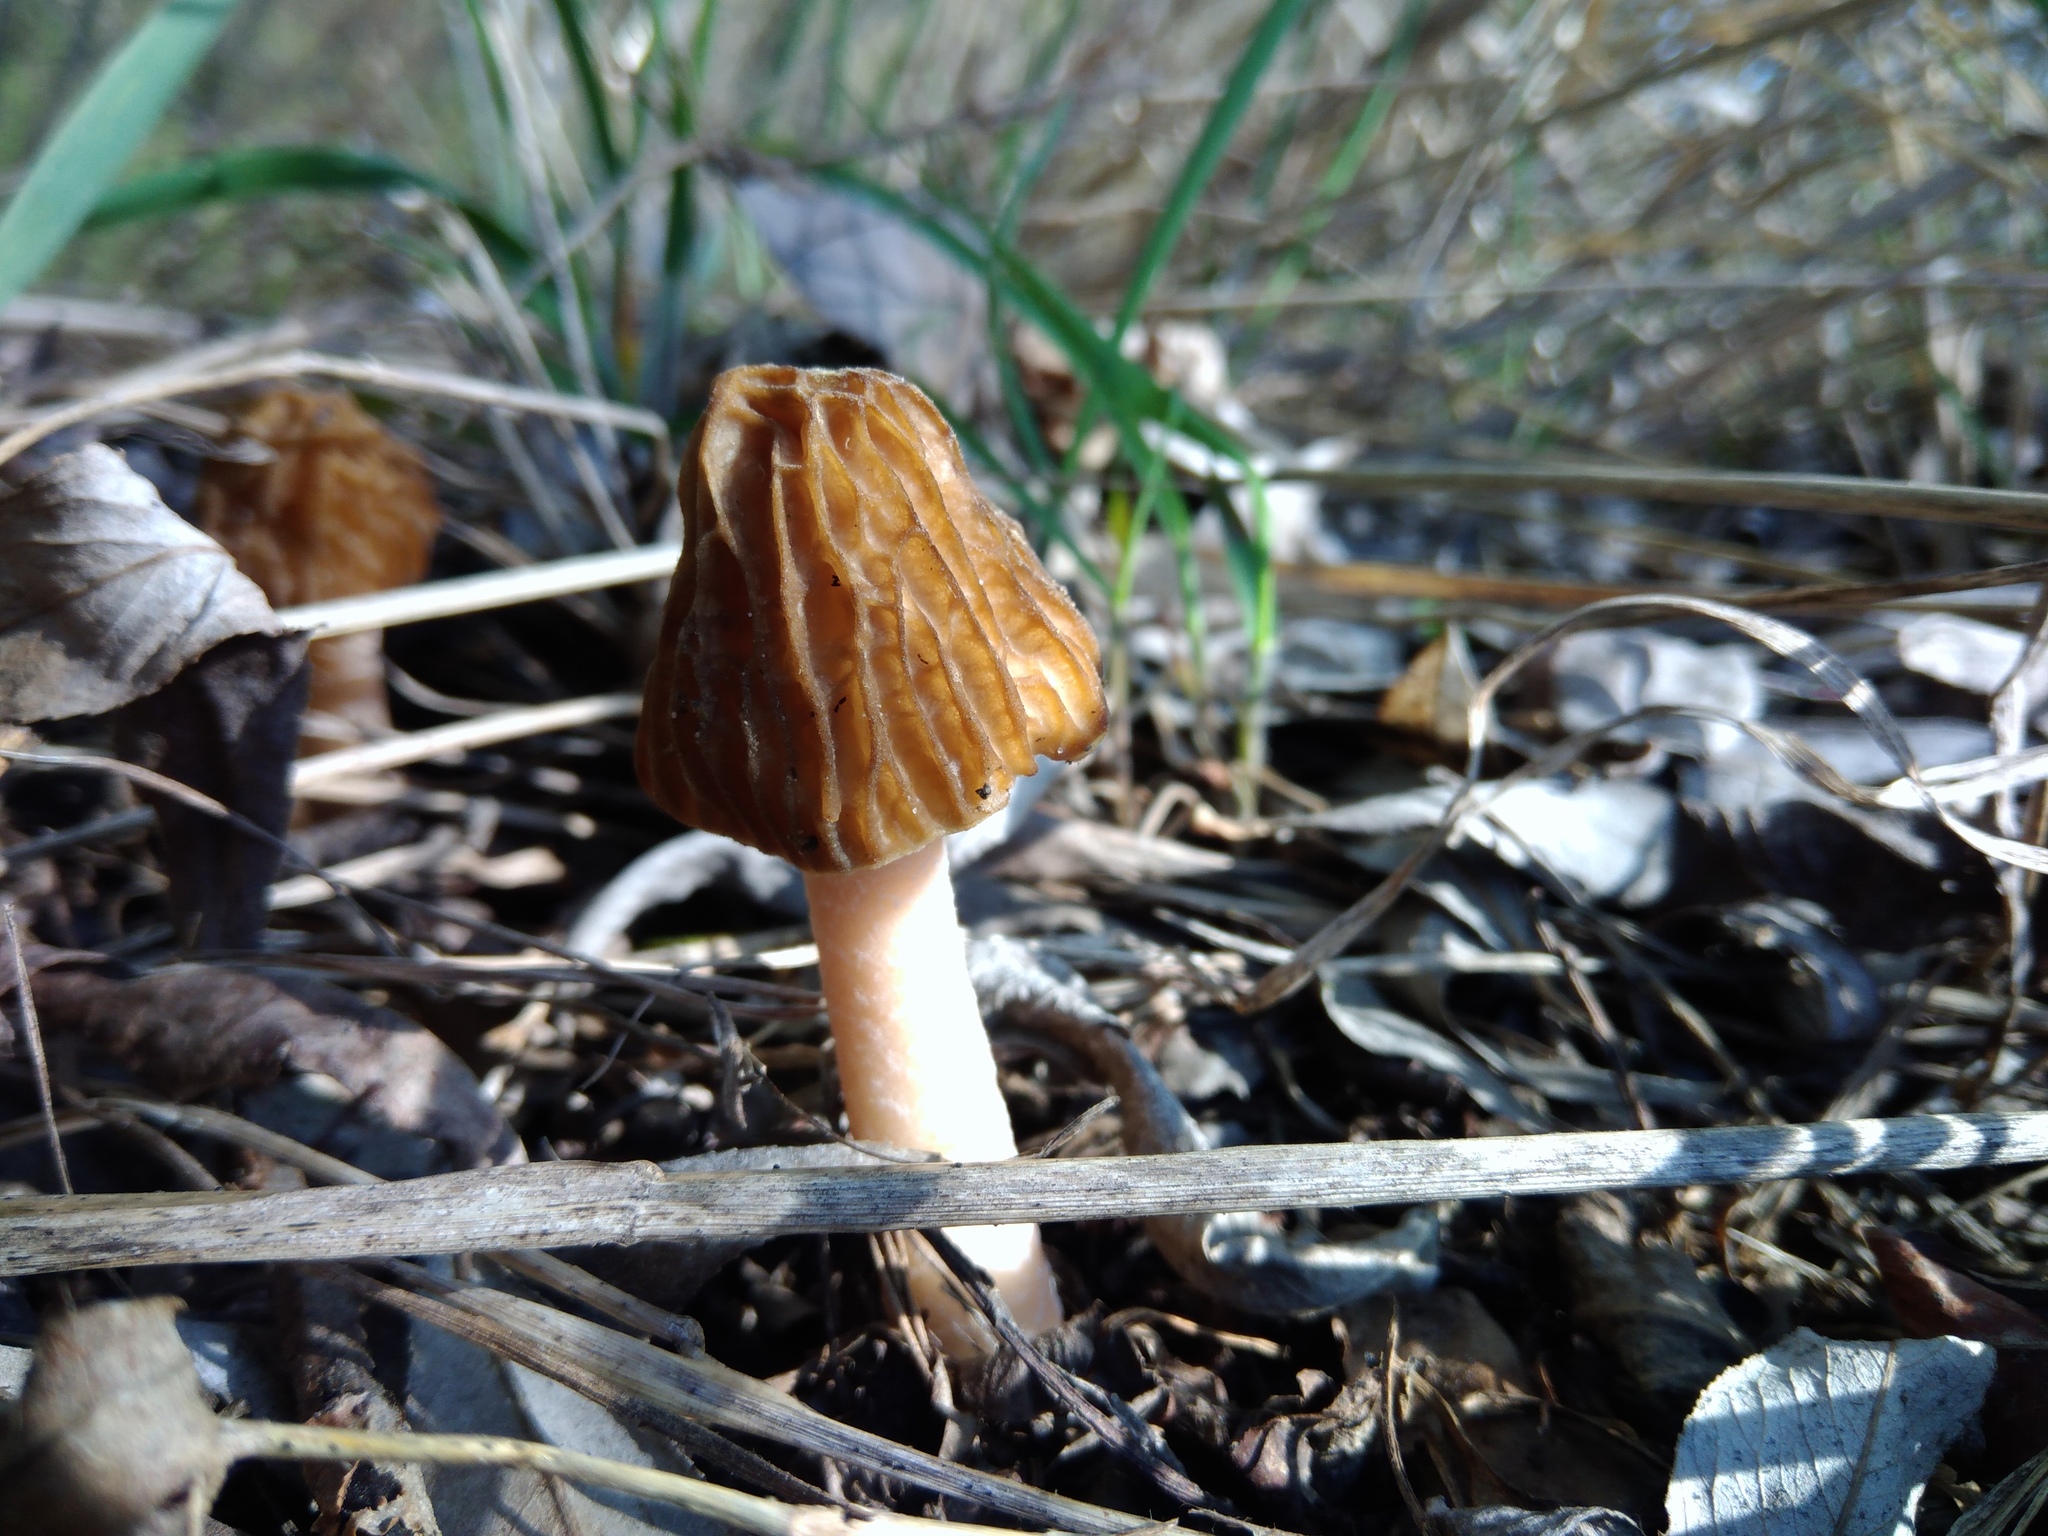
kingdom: Fungi
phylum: Ascomycota
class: Pezizomycetes
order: Pezizales
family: Morchellaceae
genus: Verpa
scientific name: Verpa bohemica
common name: Wrinkled thimble morel
